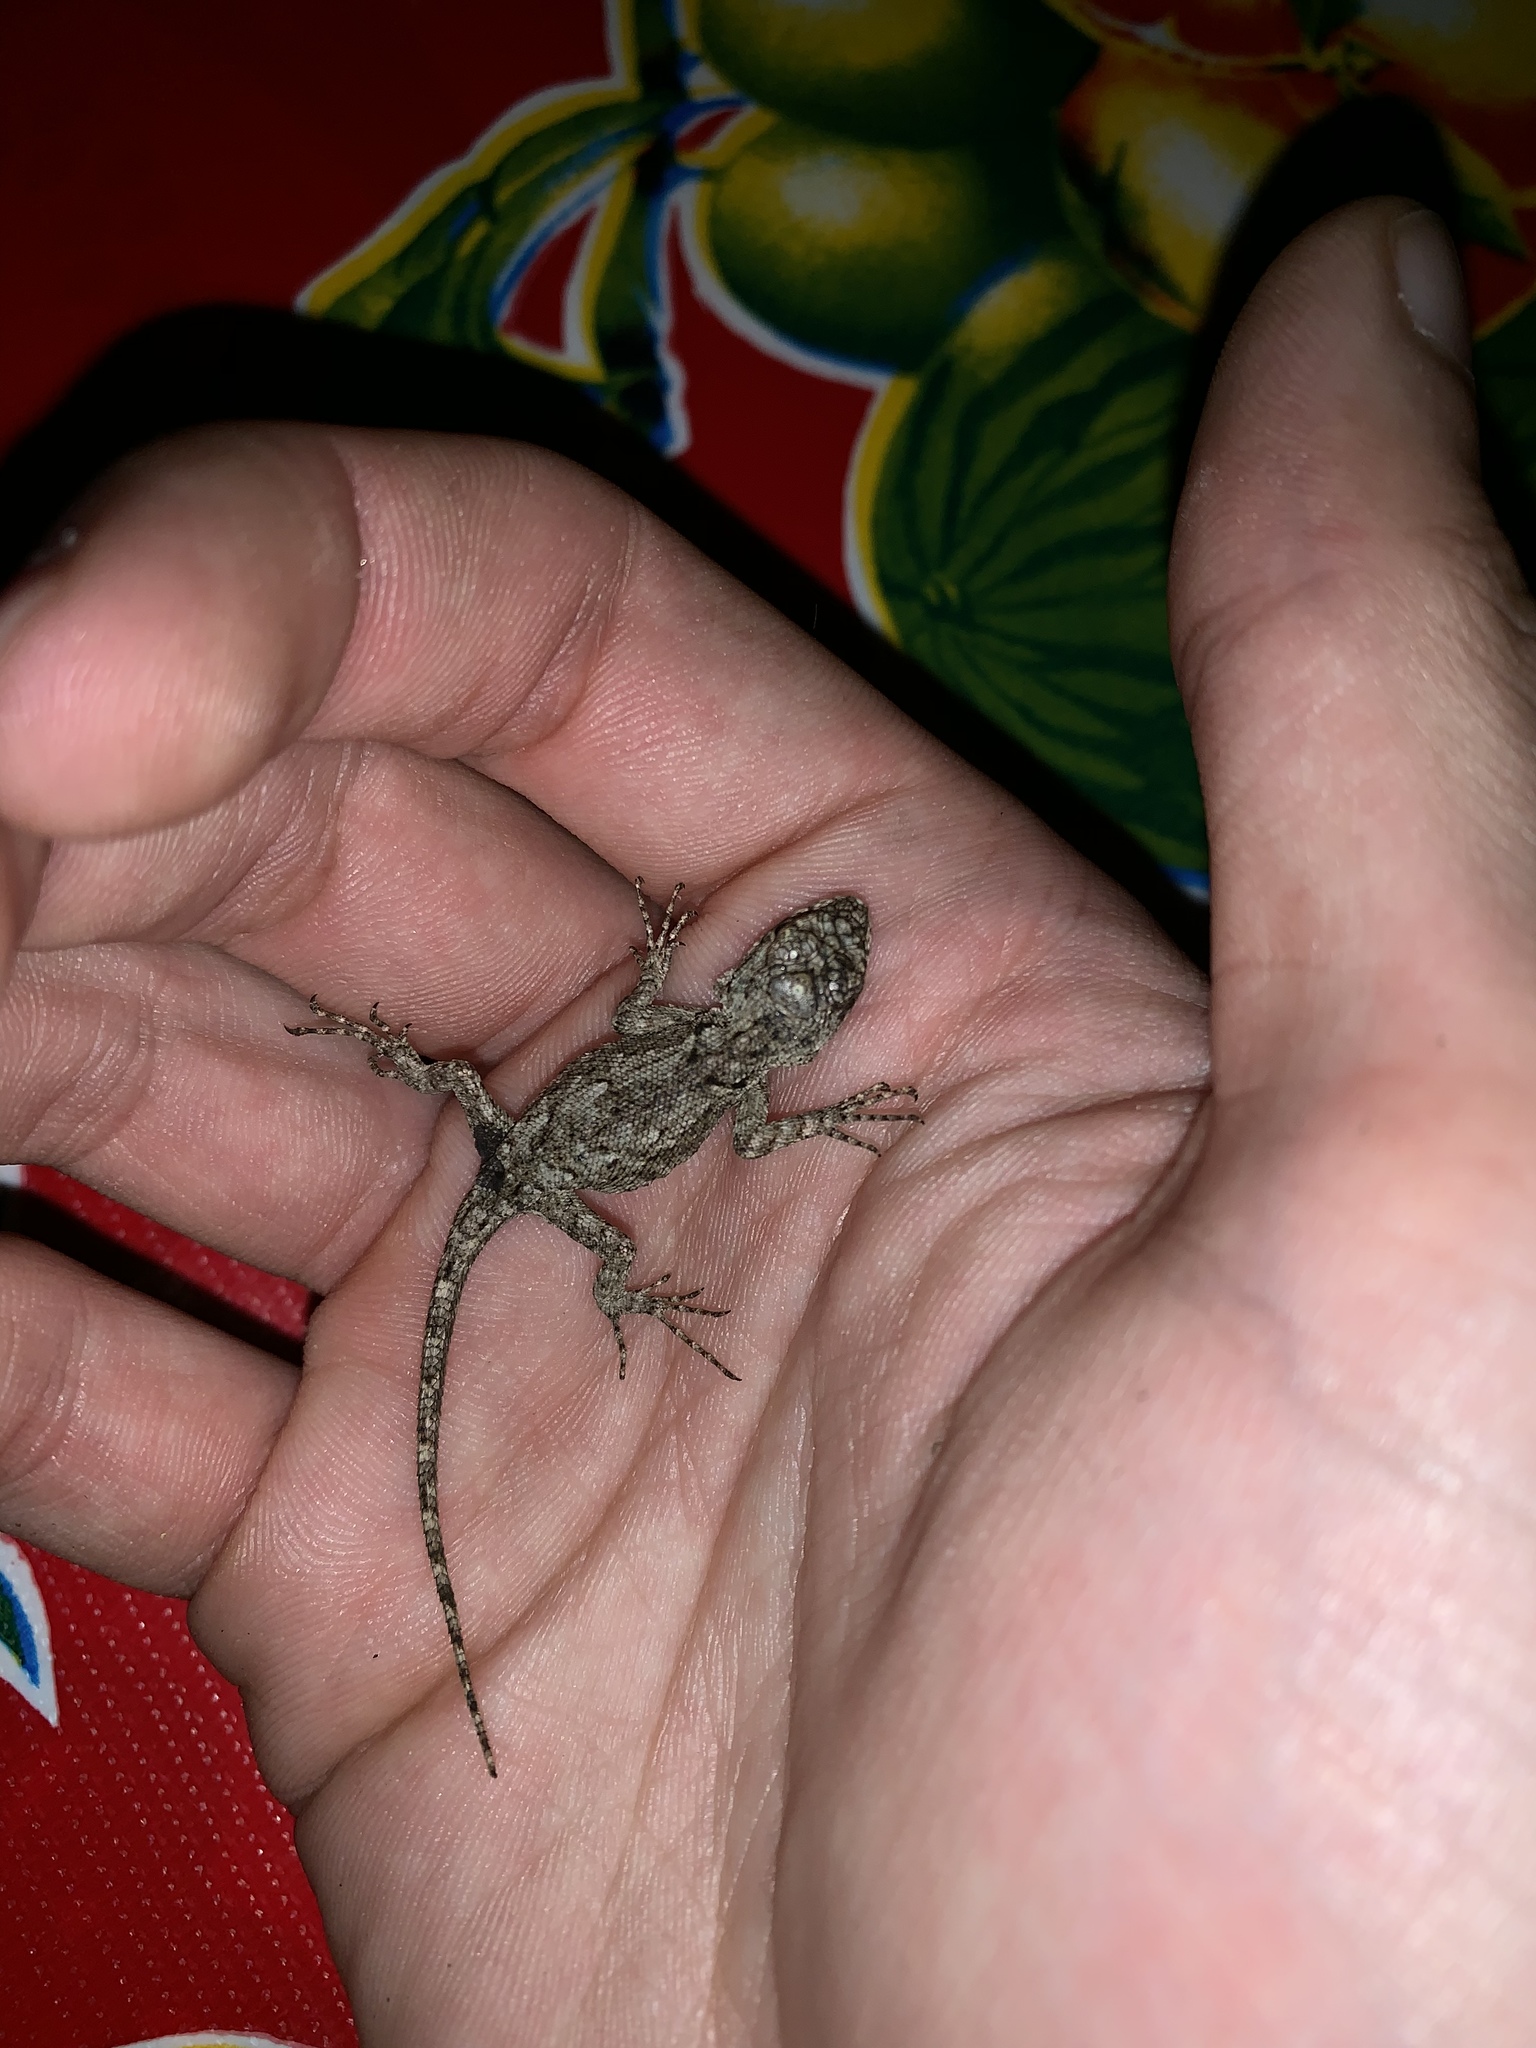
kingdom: Animalia
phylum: Chordata
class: Squamata
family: Phrynosomatidae
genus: Sceloporus
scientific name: Sceloporus grammicus
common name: Mesquite lizard
